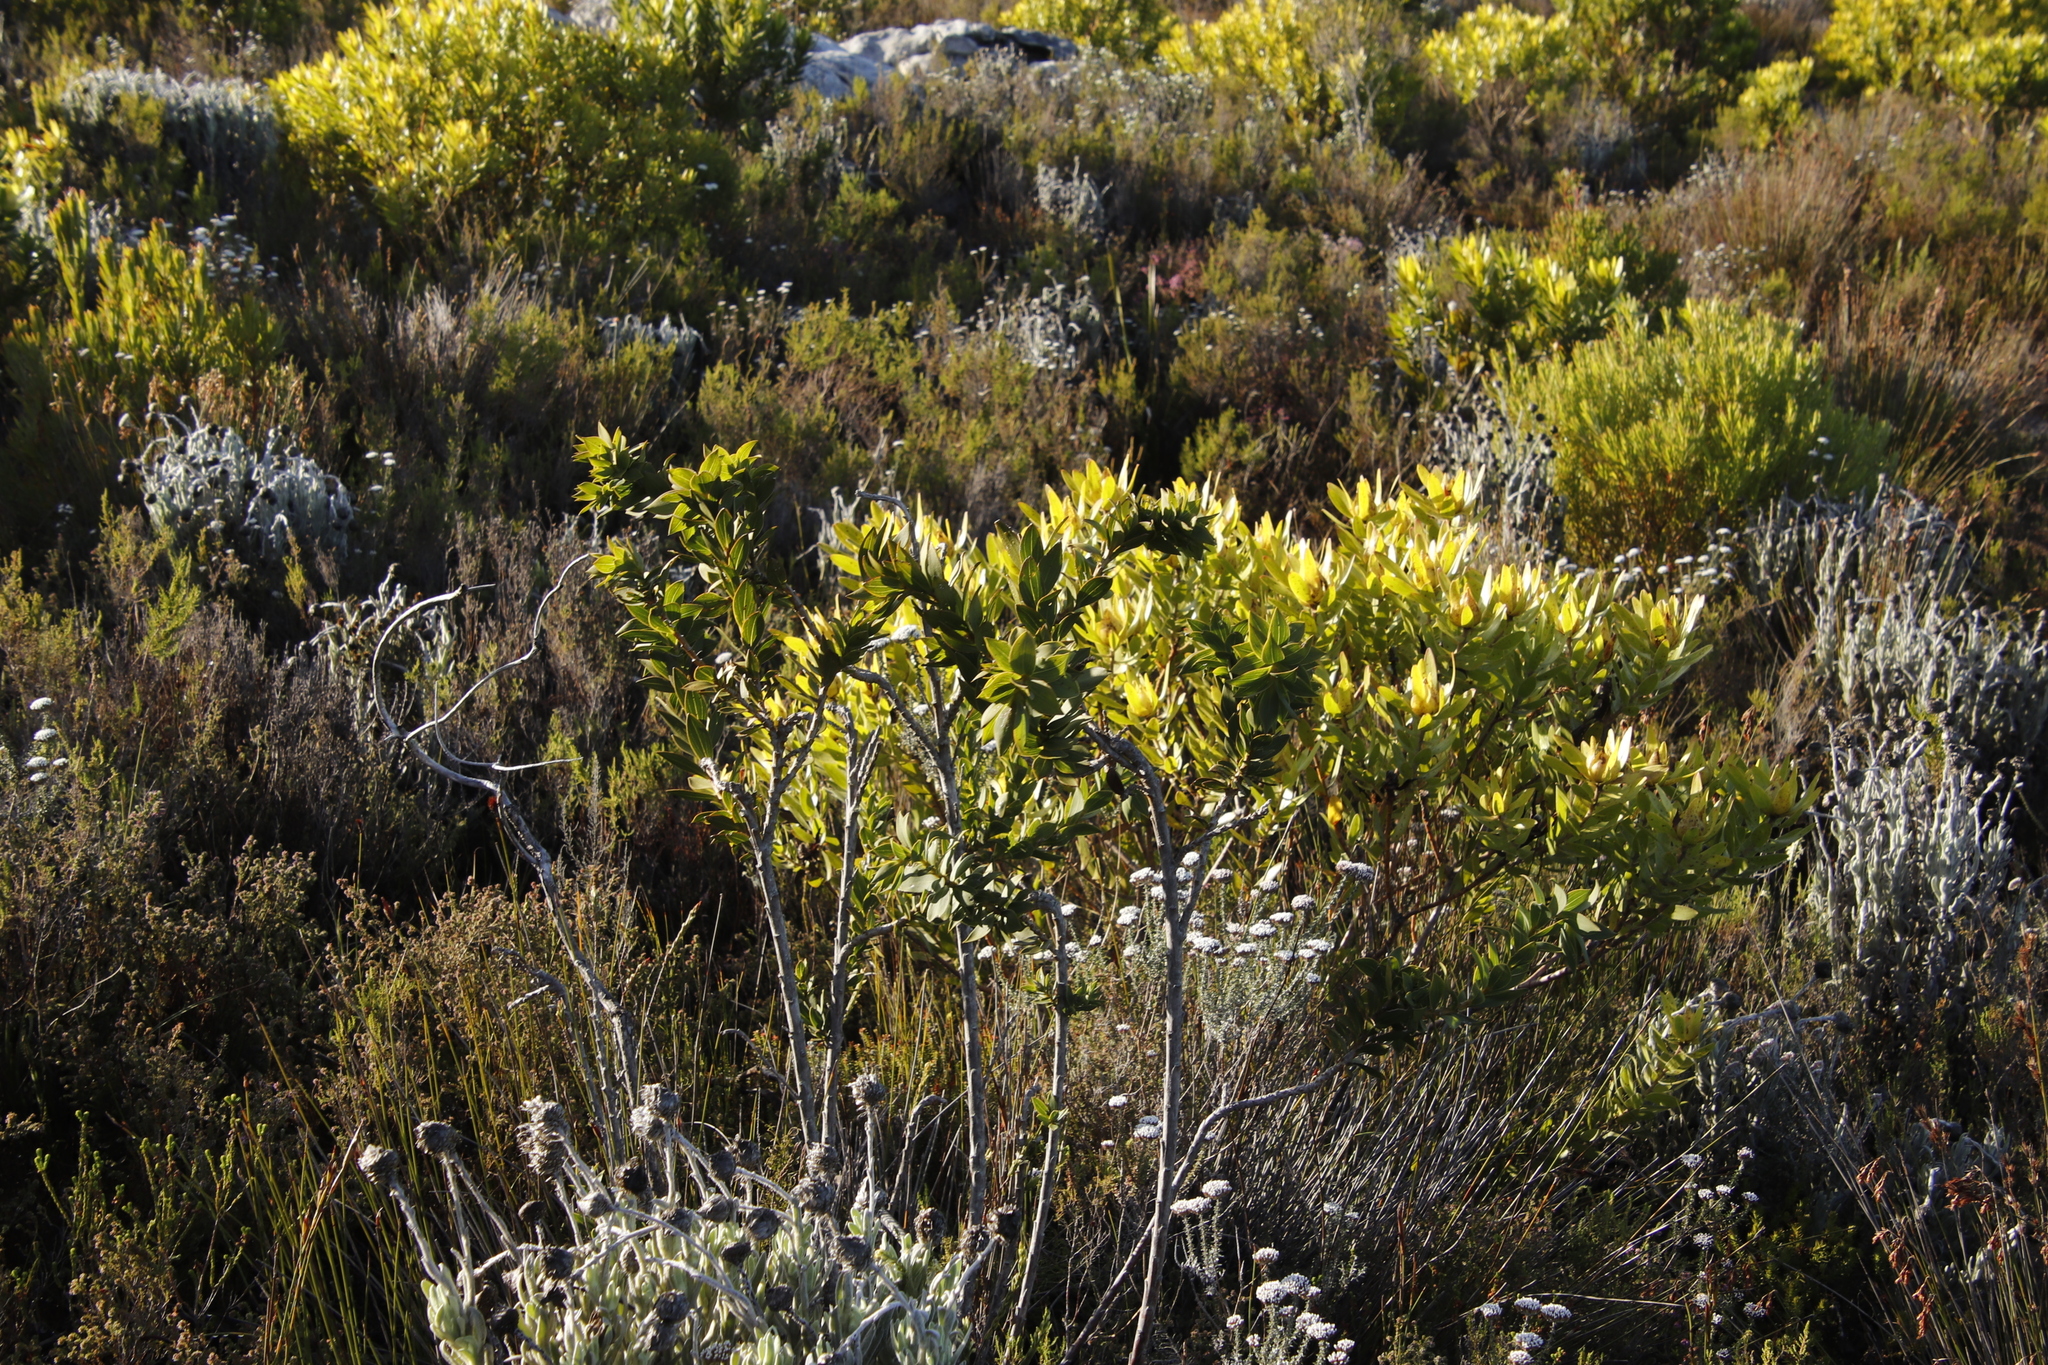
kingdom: Plantae
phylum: Tracheophyta
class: Magnoliopsida
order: Fabales
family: Fabaceae
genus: Liparia
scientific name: Liparia splendens
